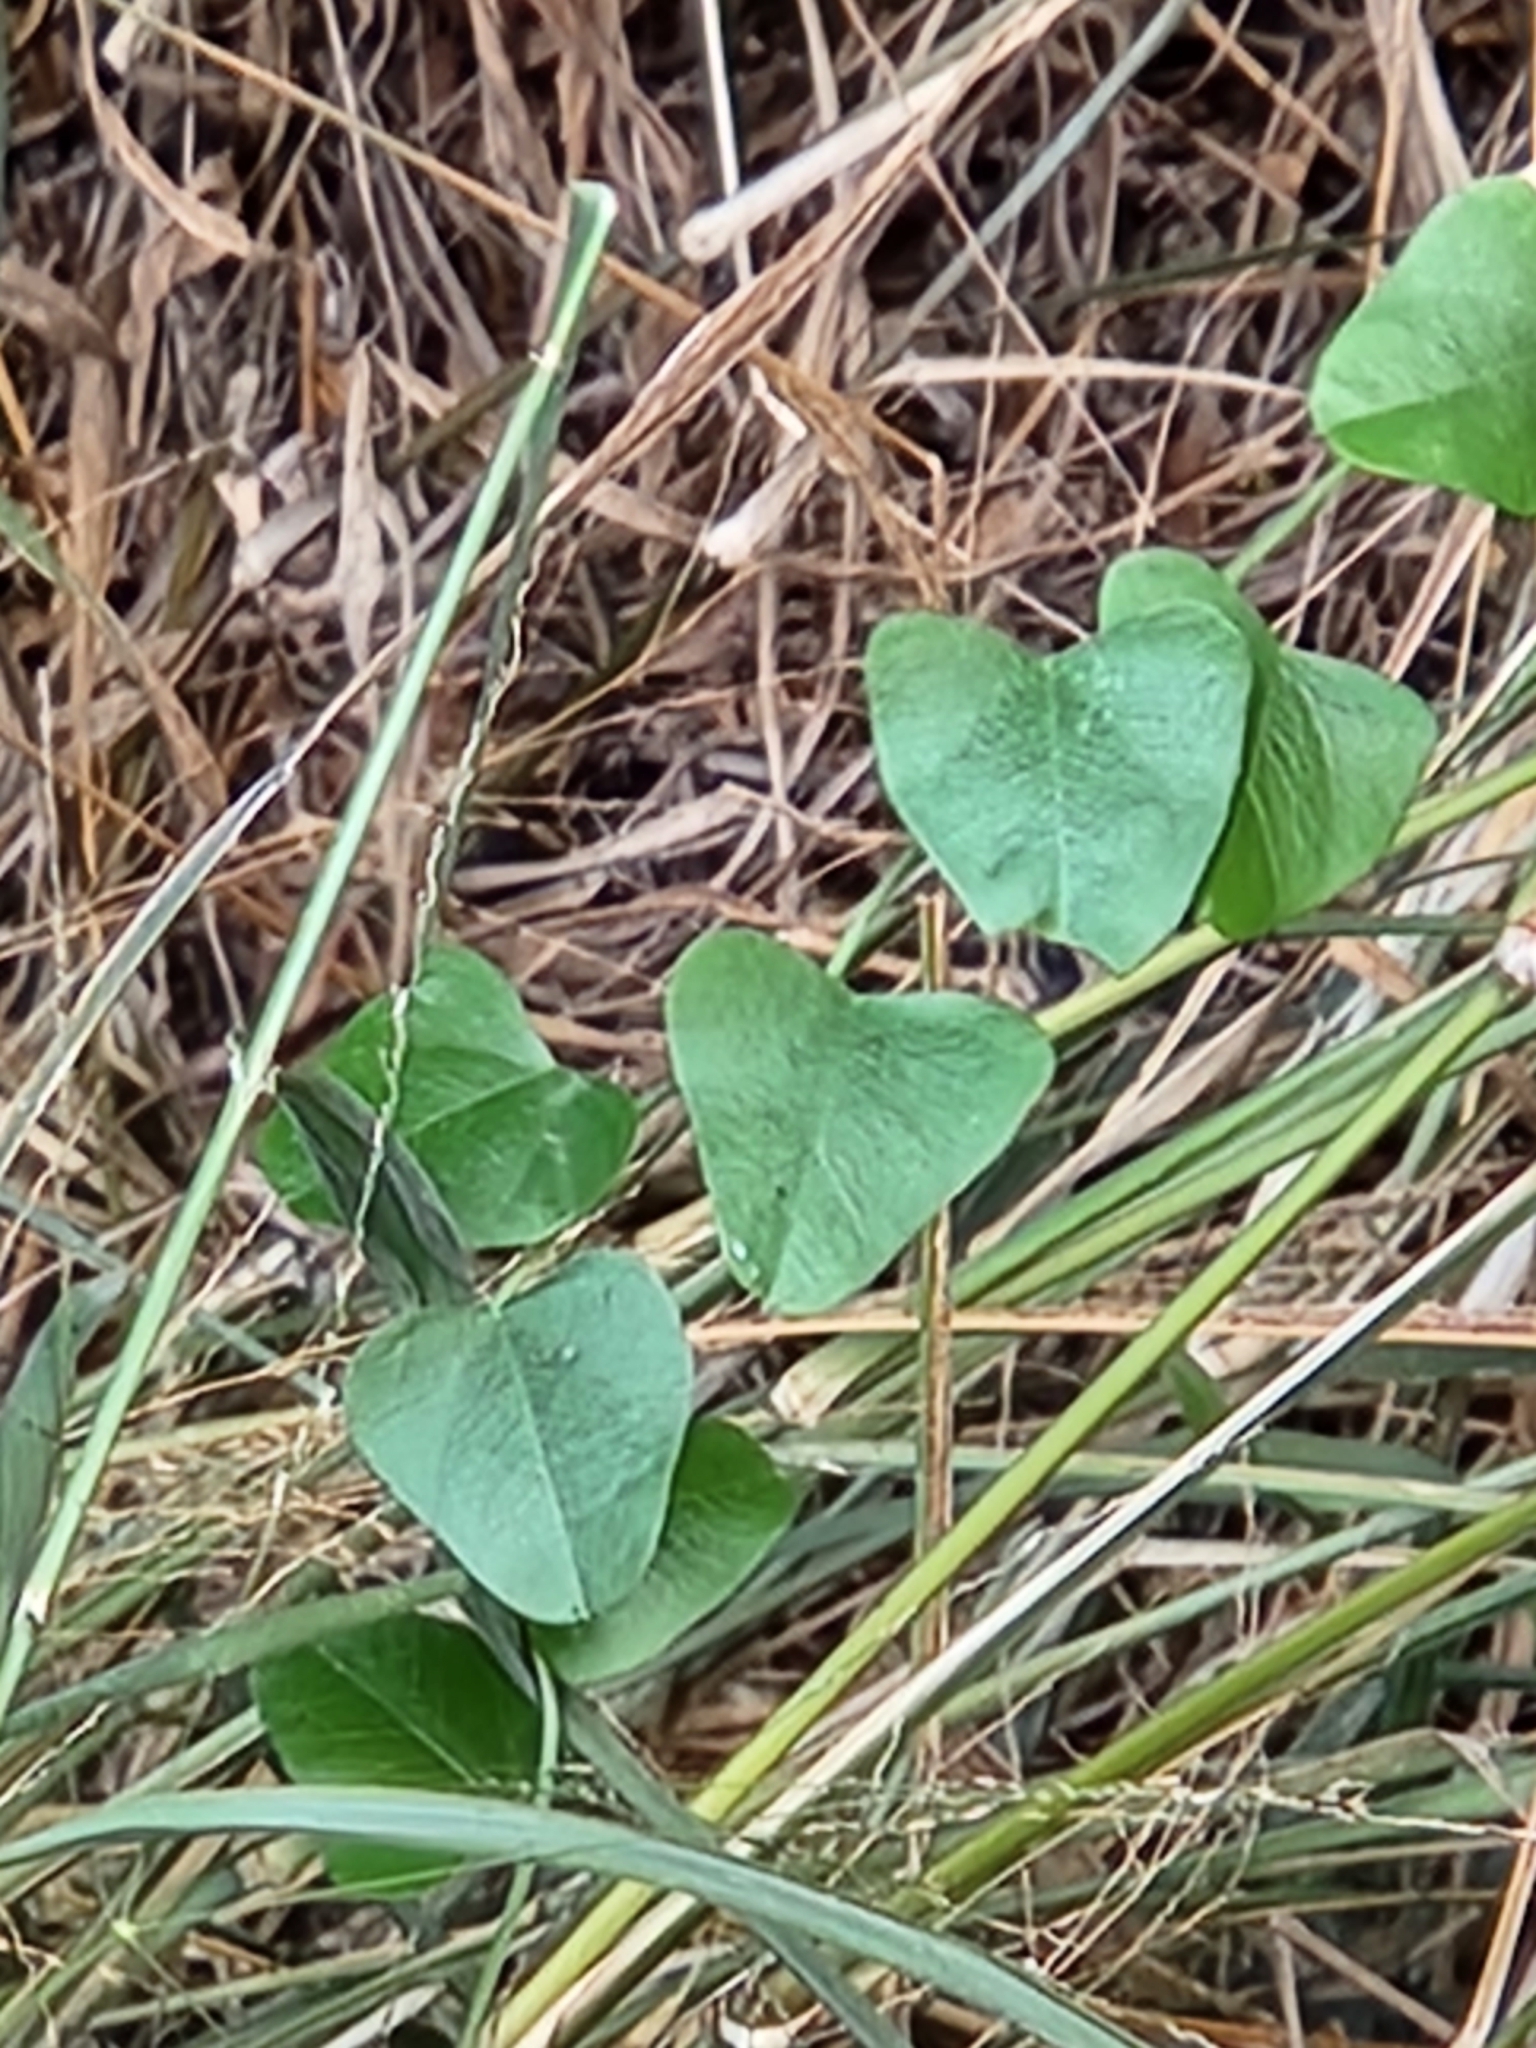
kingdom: Plantae
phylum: Tracheophyta
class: Magnoliopsida
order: Ranunculales
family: Menispermaceae
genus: Cocculus
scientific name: Cocculus diversifolius
